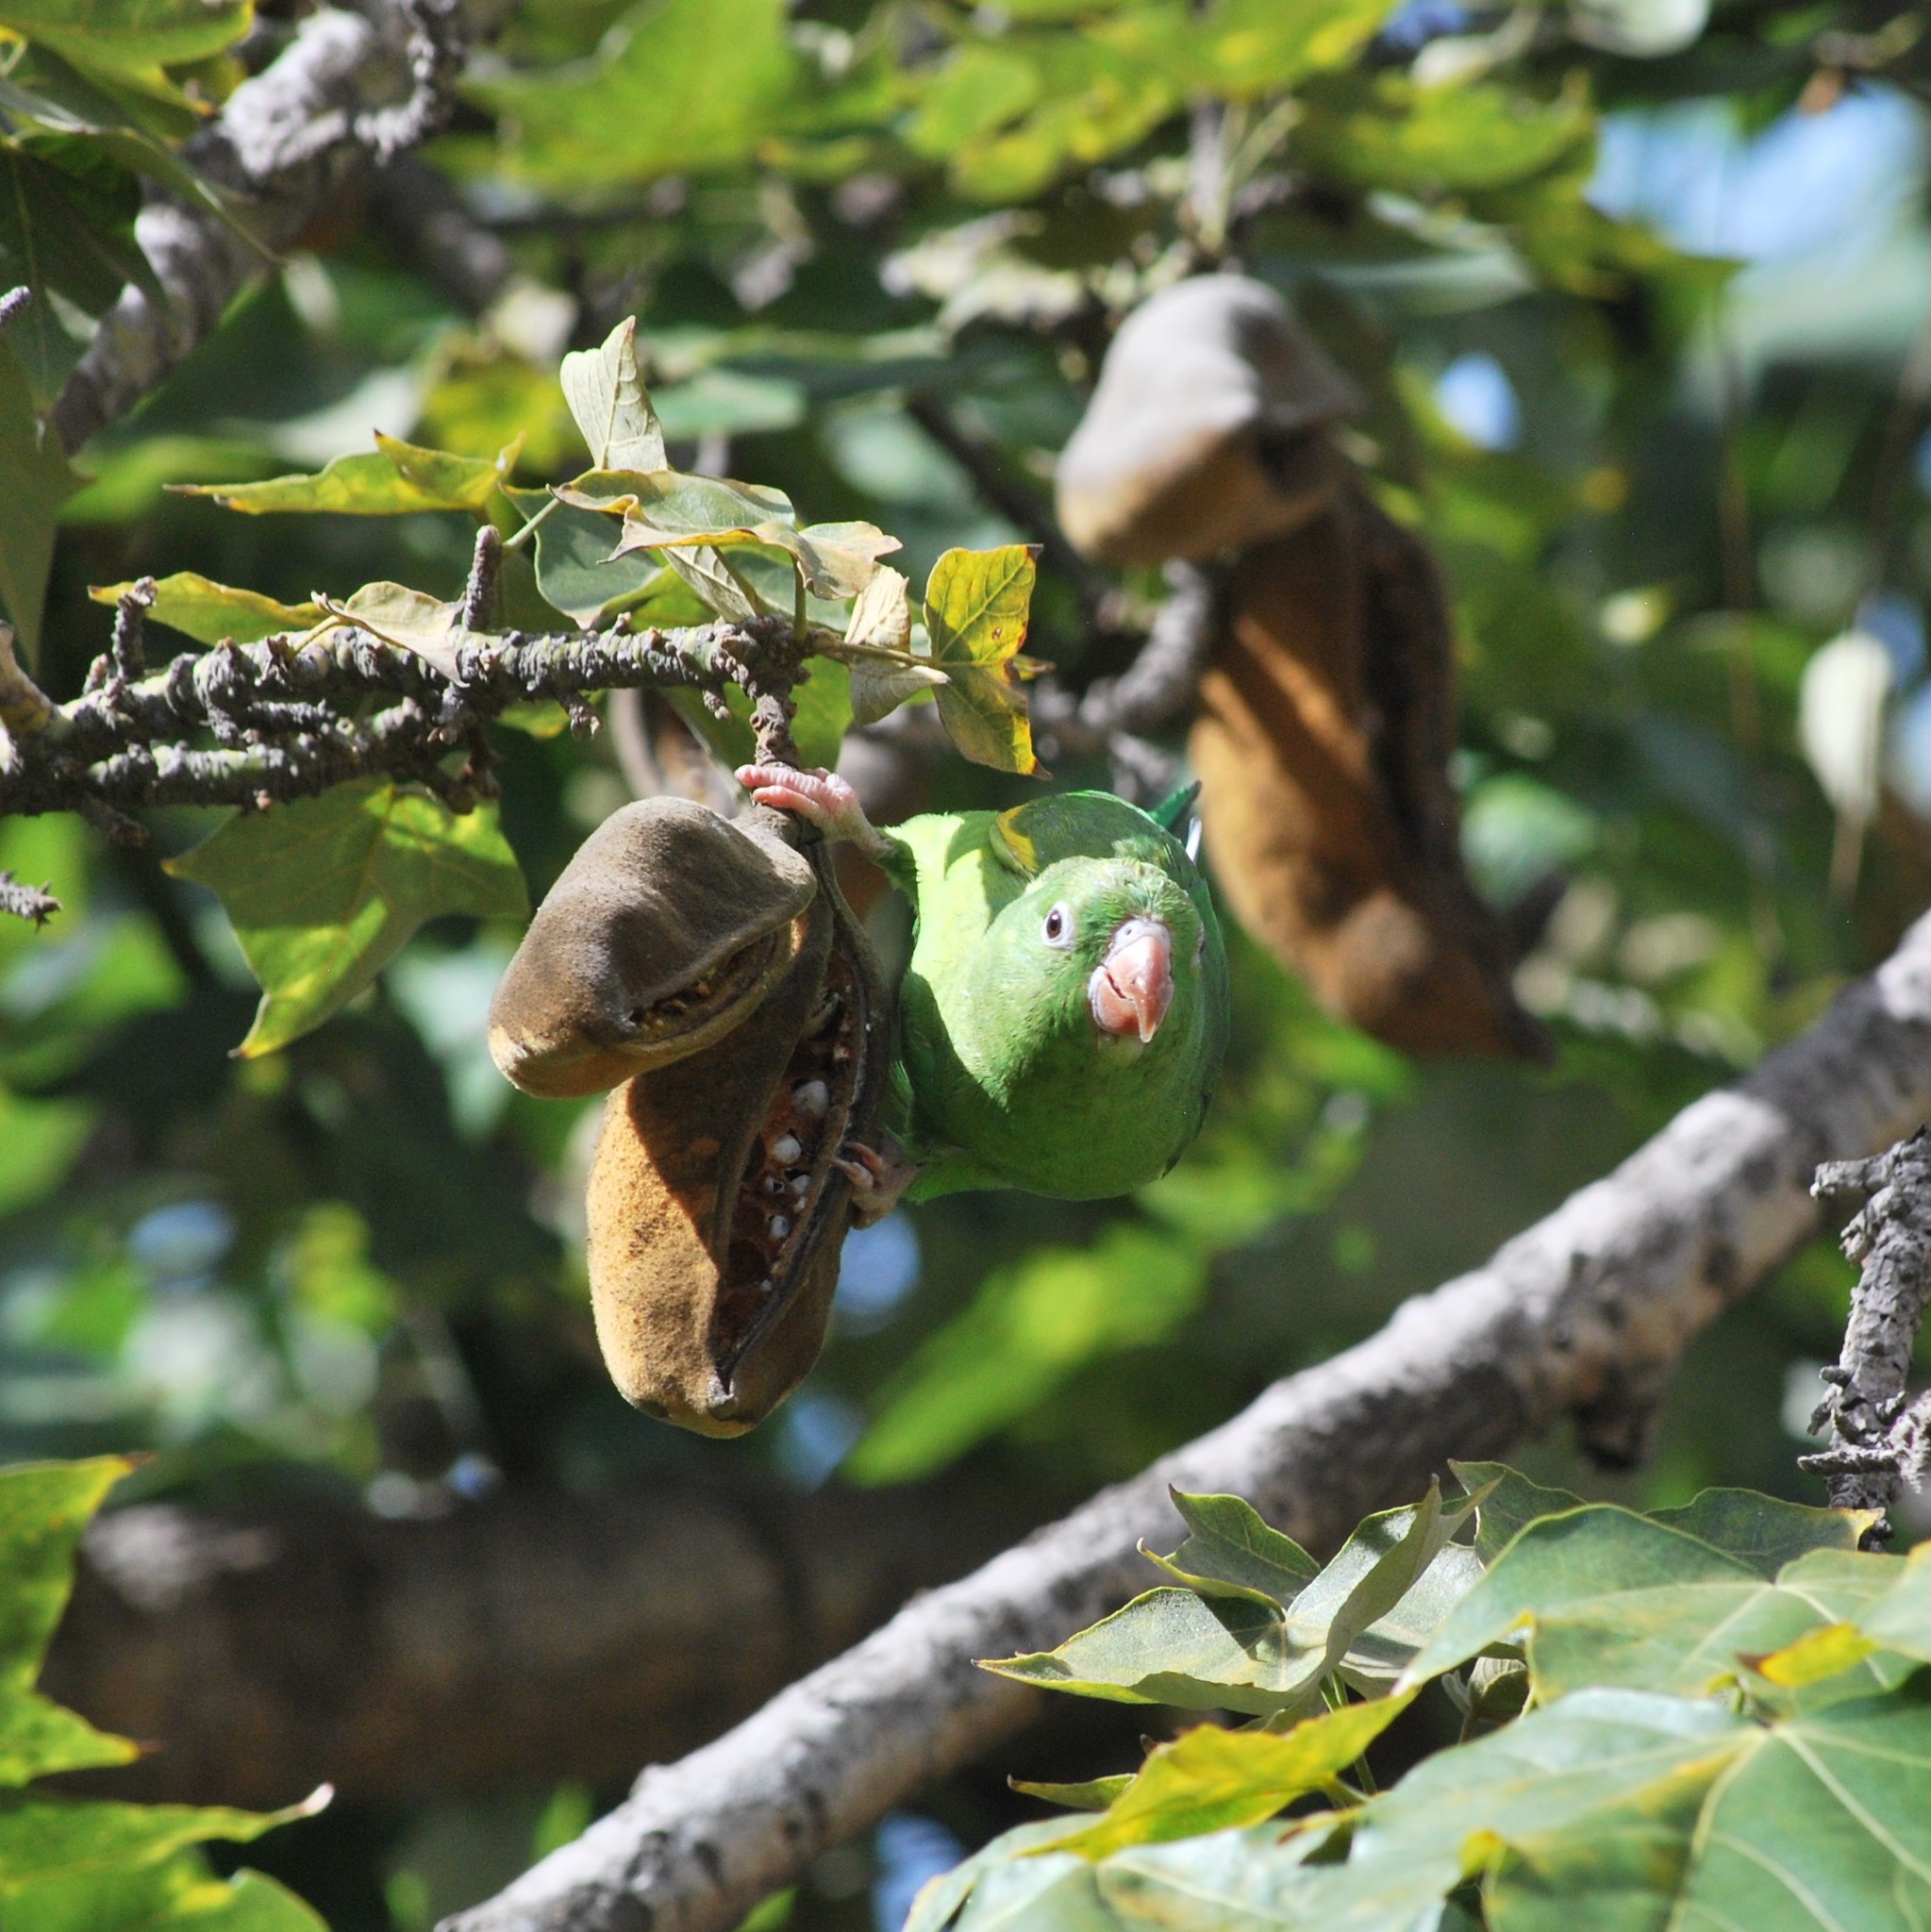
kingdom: Animalia
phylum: Chordata
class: Aves
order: Psittaciformes
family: Psittacidae
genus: Brotogeris
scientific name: Brotogeris chiriri
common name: Yellow-chevroned parakeet
